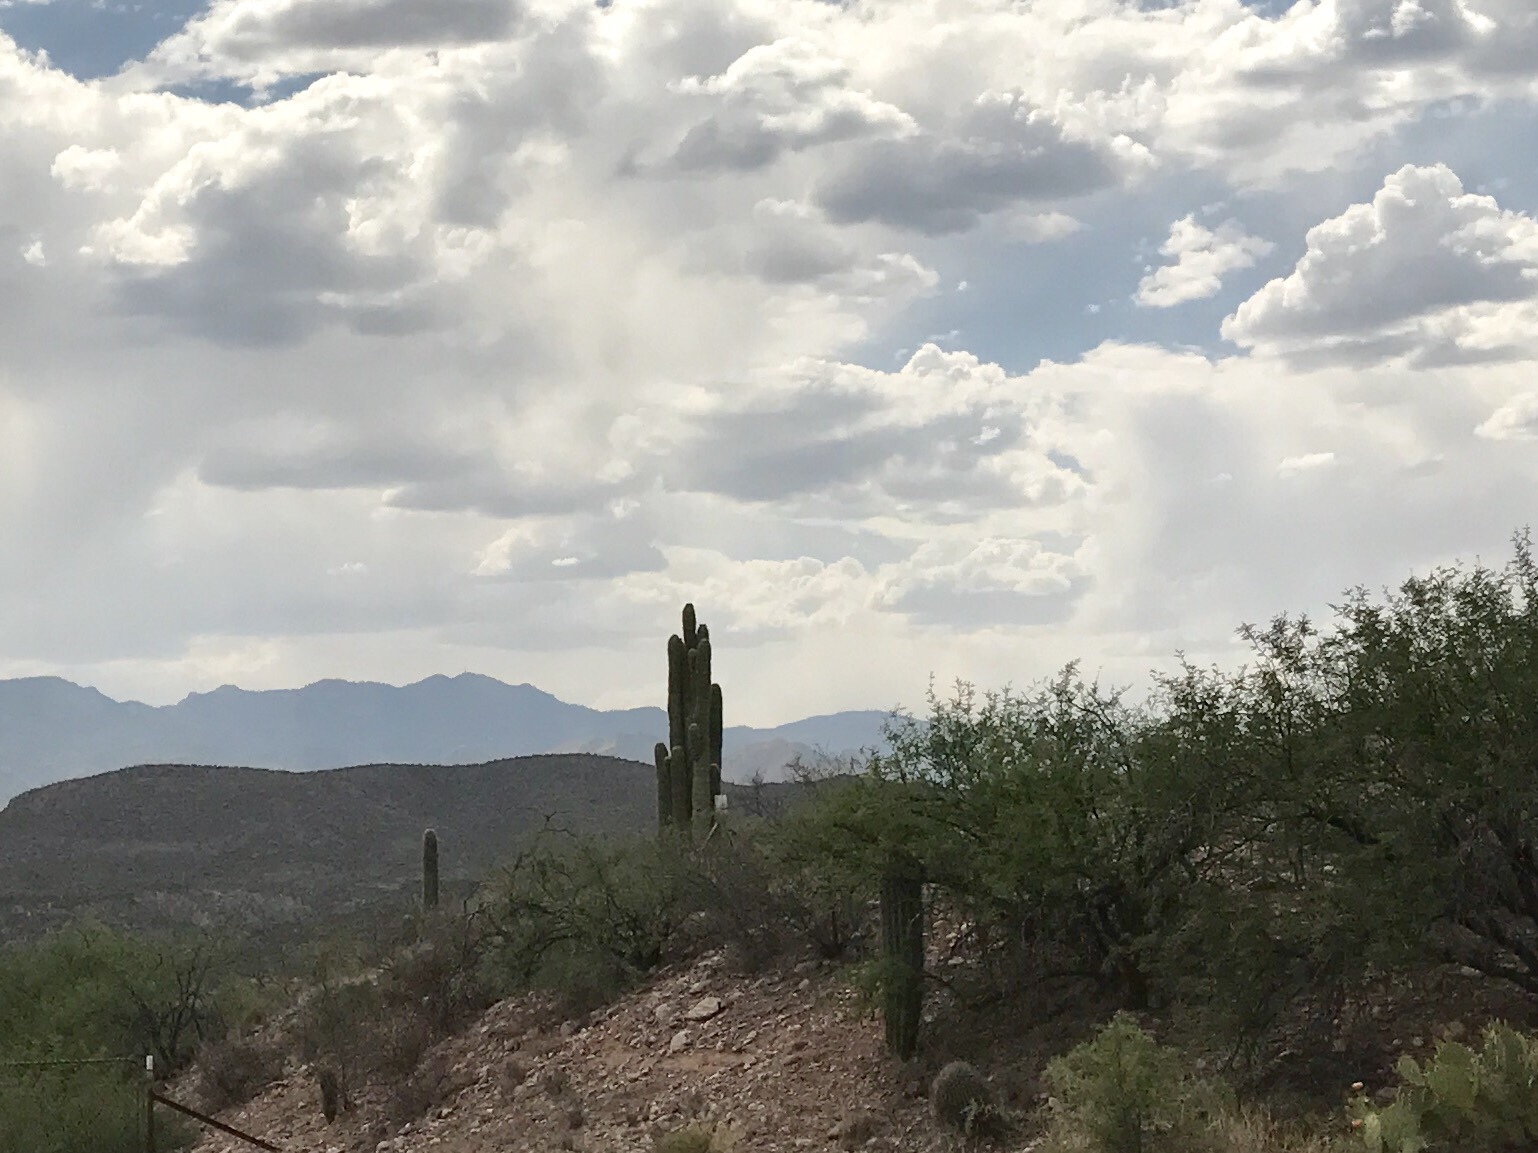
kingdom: Plantae
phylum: Tracheophyta
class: Magnoliopsida
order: Caryophyllales
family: Cactaceae
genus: Carnegiea
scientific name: Carnegiea gigantea
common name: Saguaro
